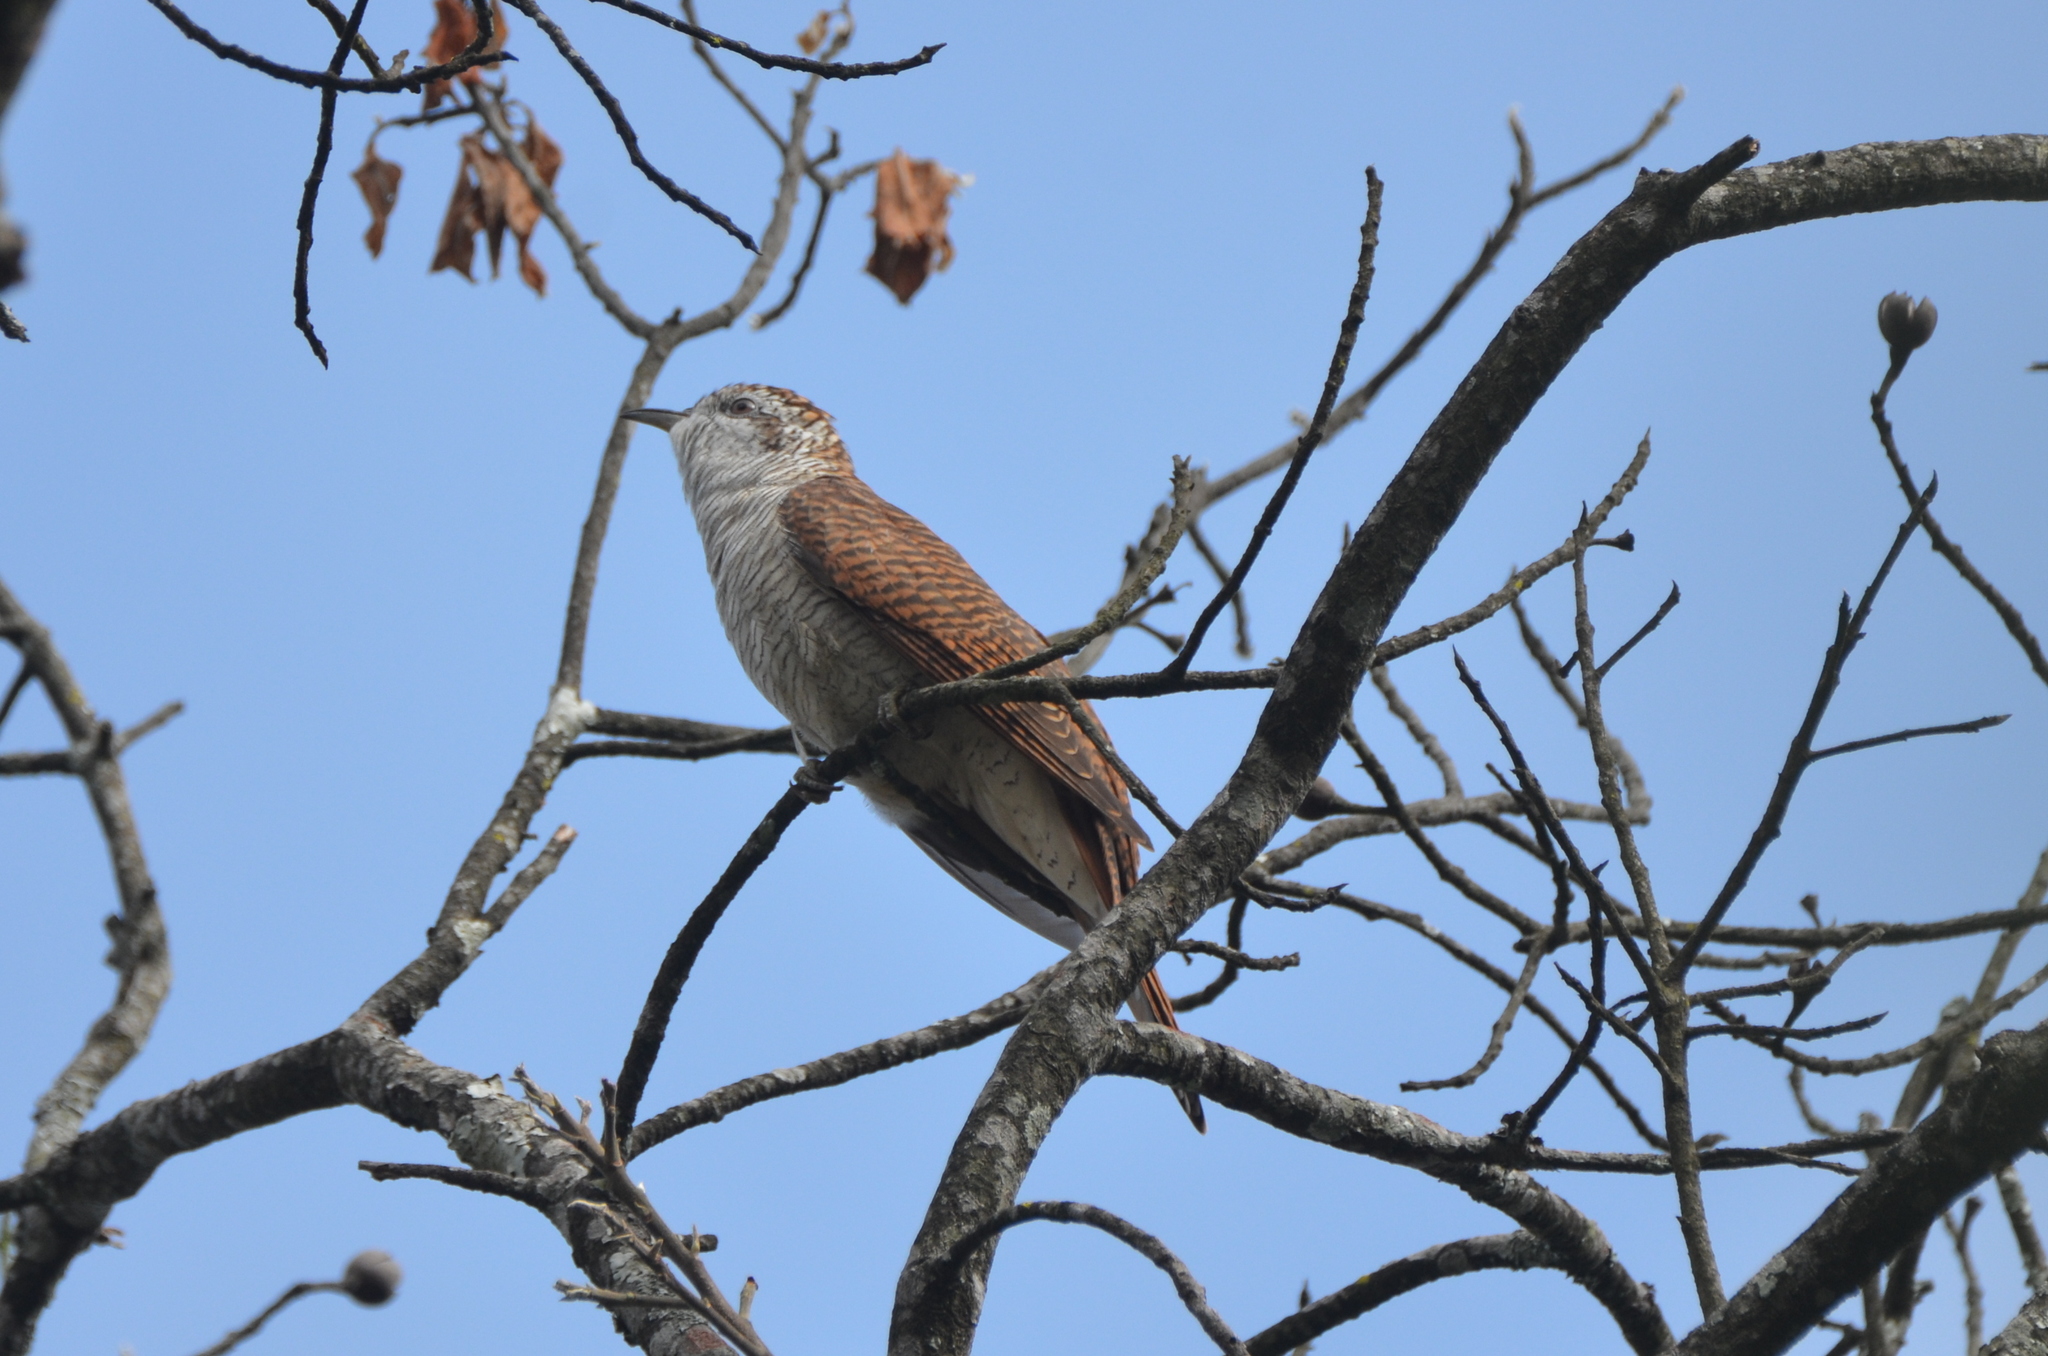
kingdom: Animalia
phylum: Chordata
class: Aves
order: Cuculiformes
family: Cuculidae
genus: Cacomantis
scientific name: Cacomantis sonneratii
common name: Banded bay cuckoo
